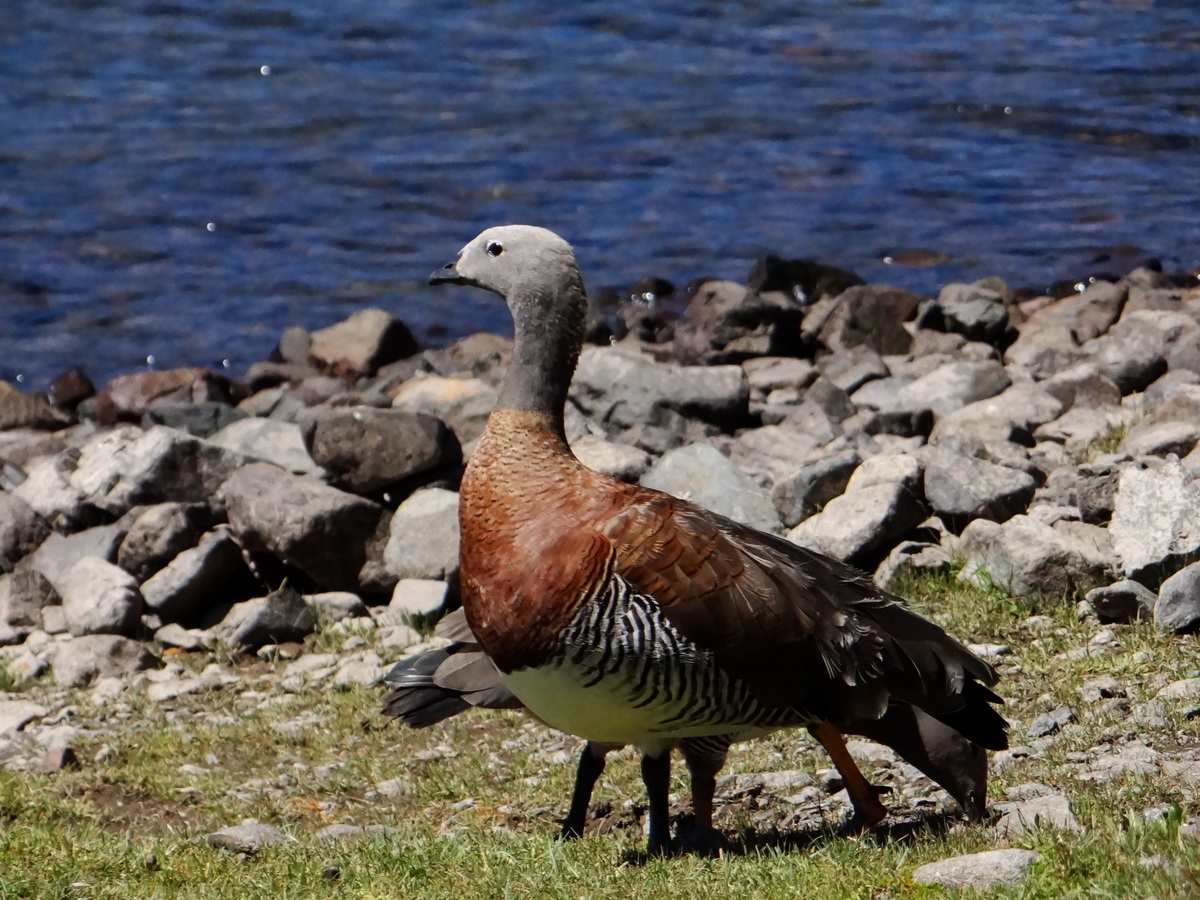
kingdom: Animalia
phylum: Chordata
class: Aves
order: Anseriformes
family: Anatidae
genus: Chloephaga
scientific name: Chloephaga poliocephala
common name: Ashy-headed goose
